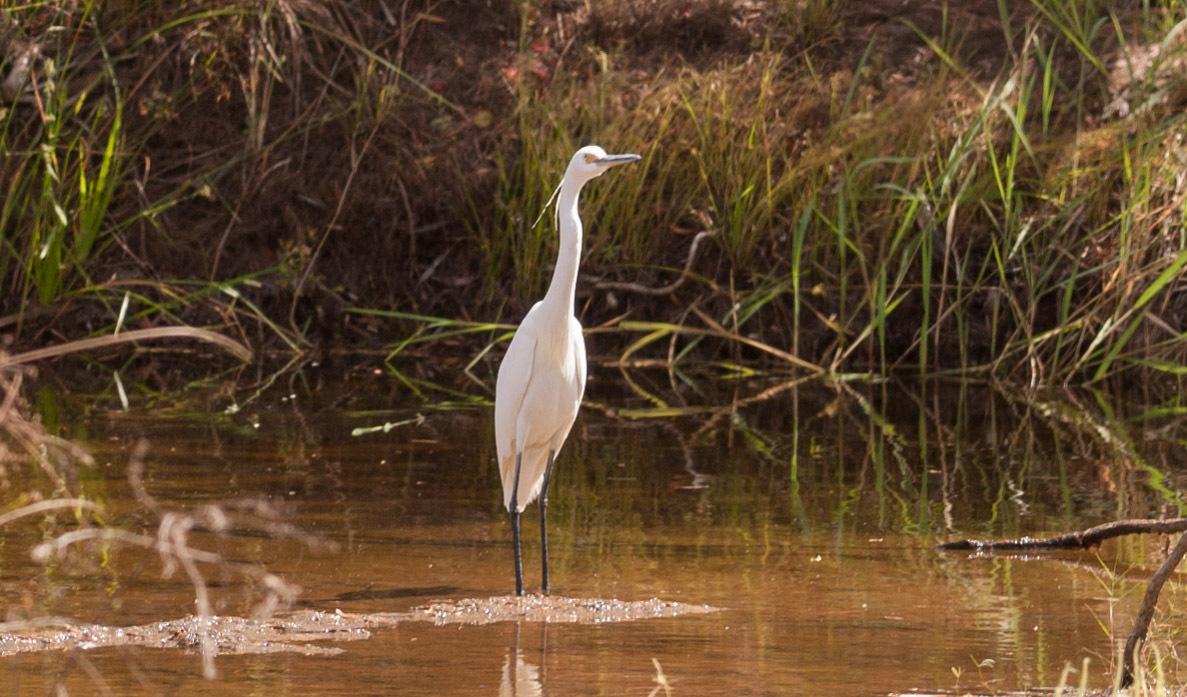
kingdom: Animalia
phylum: Chordata
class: Aves
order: Pelecaniformes
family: Ardeidae
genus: Egretta
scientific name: Egretta garzetta
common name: Little egret
